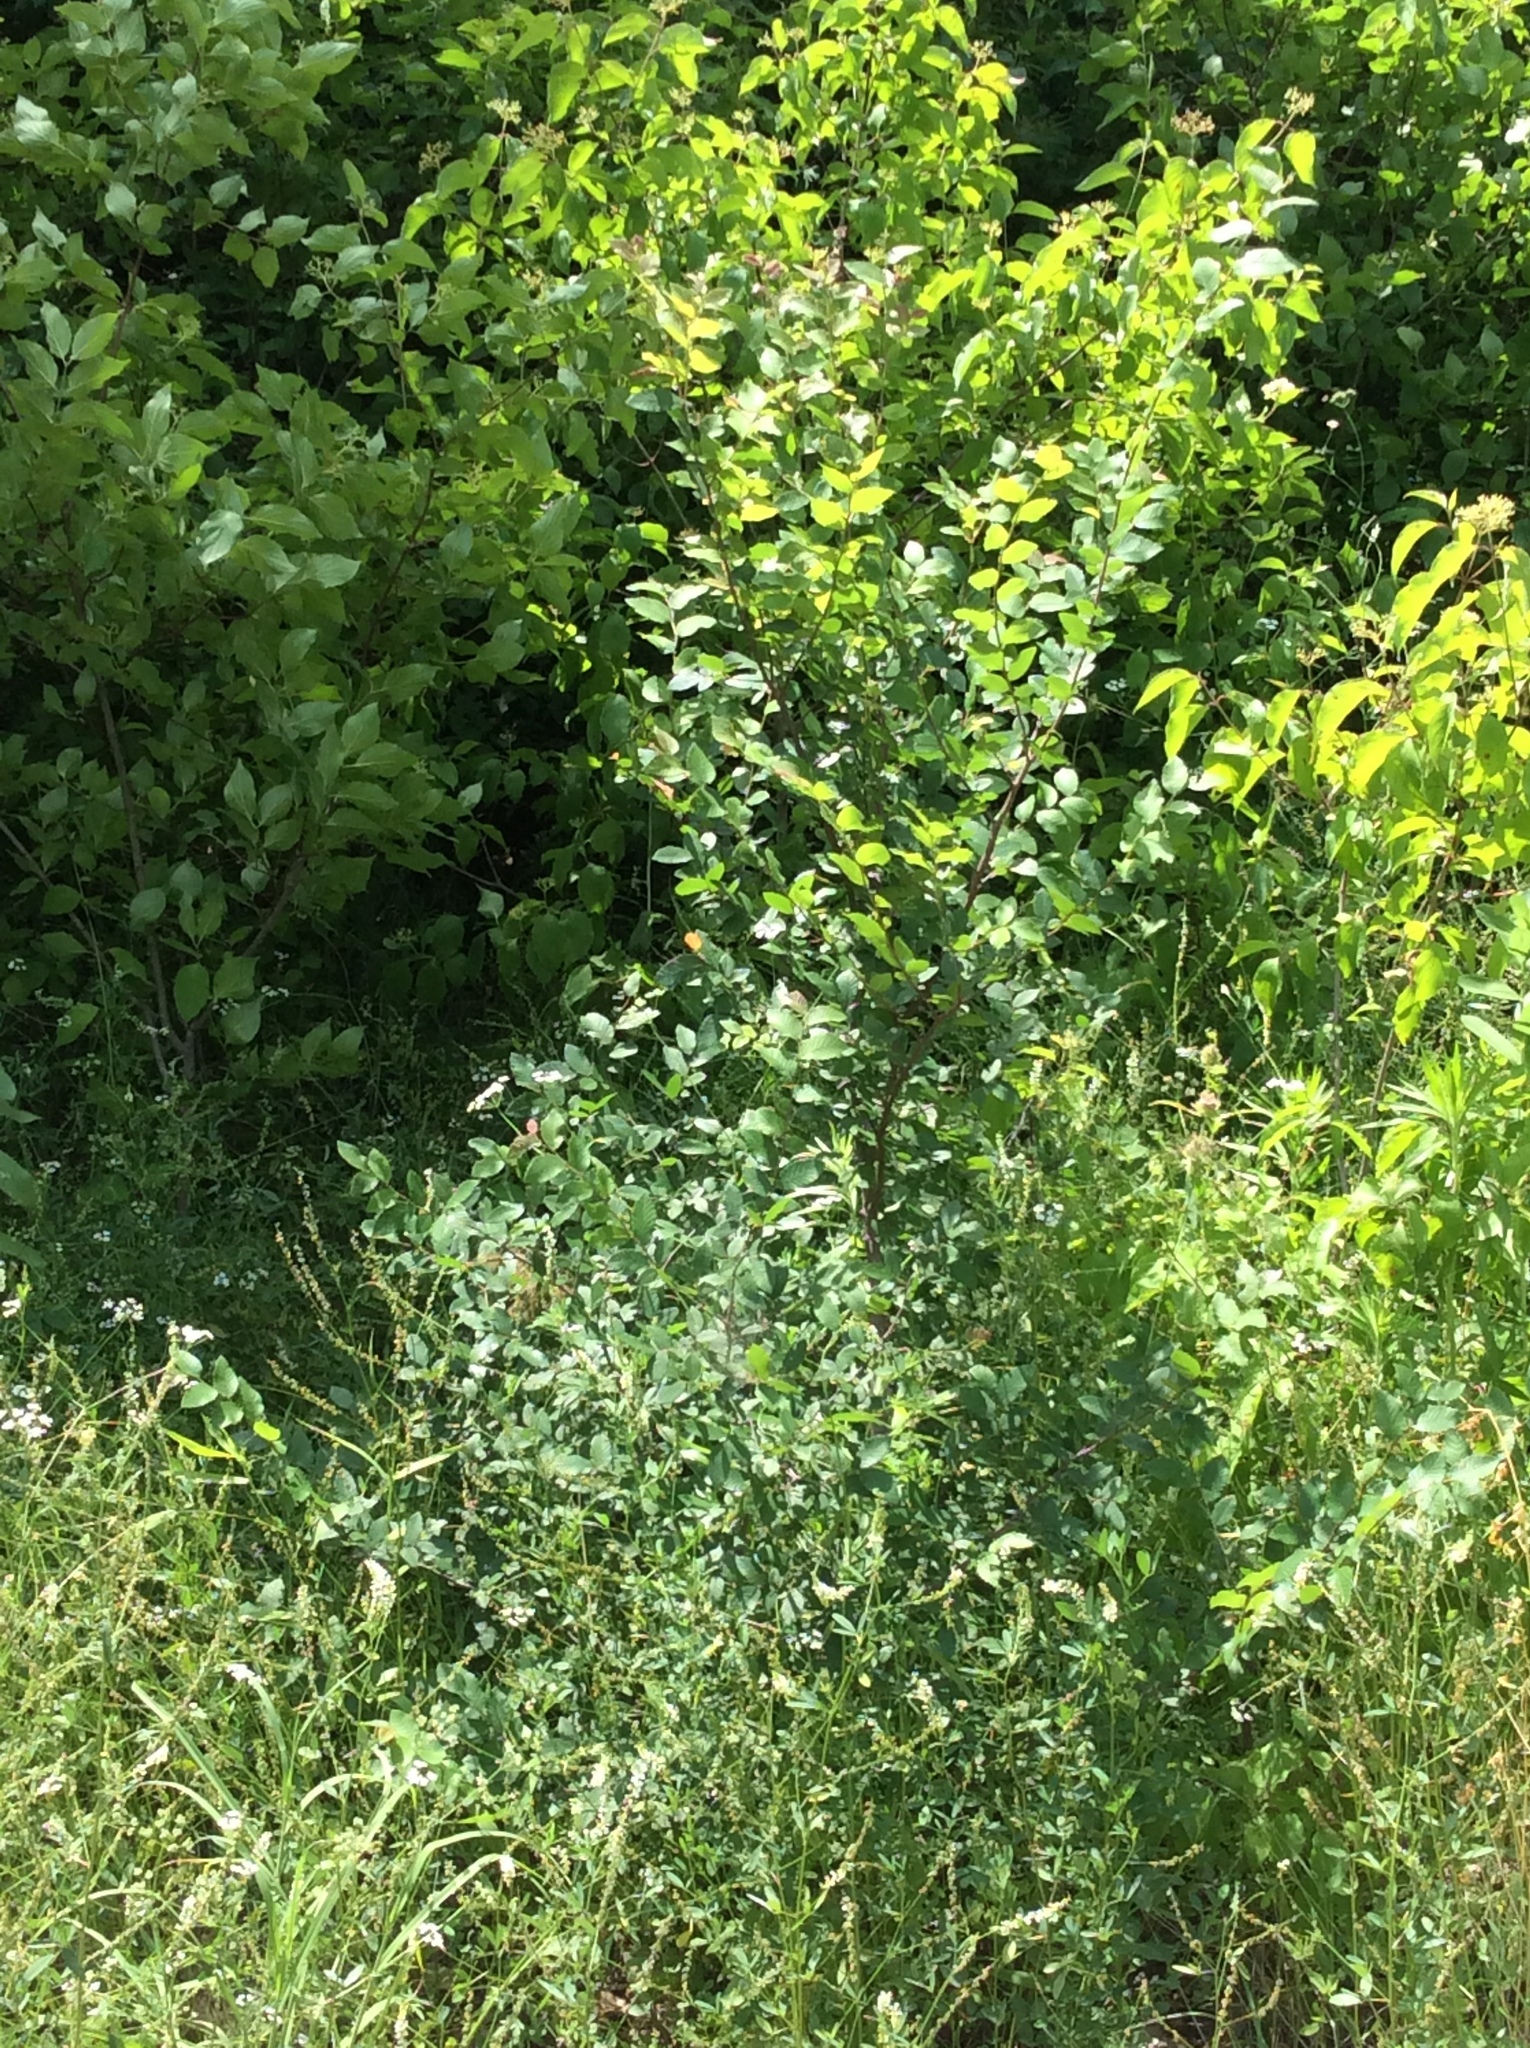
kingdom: Plantae
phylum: Tracheophyta
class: Magnoliopsida
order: Rosales
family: Ulmaceae
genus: Ulmus
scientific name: Ulmus crassifolia
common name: Basket elm
